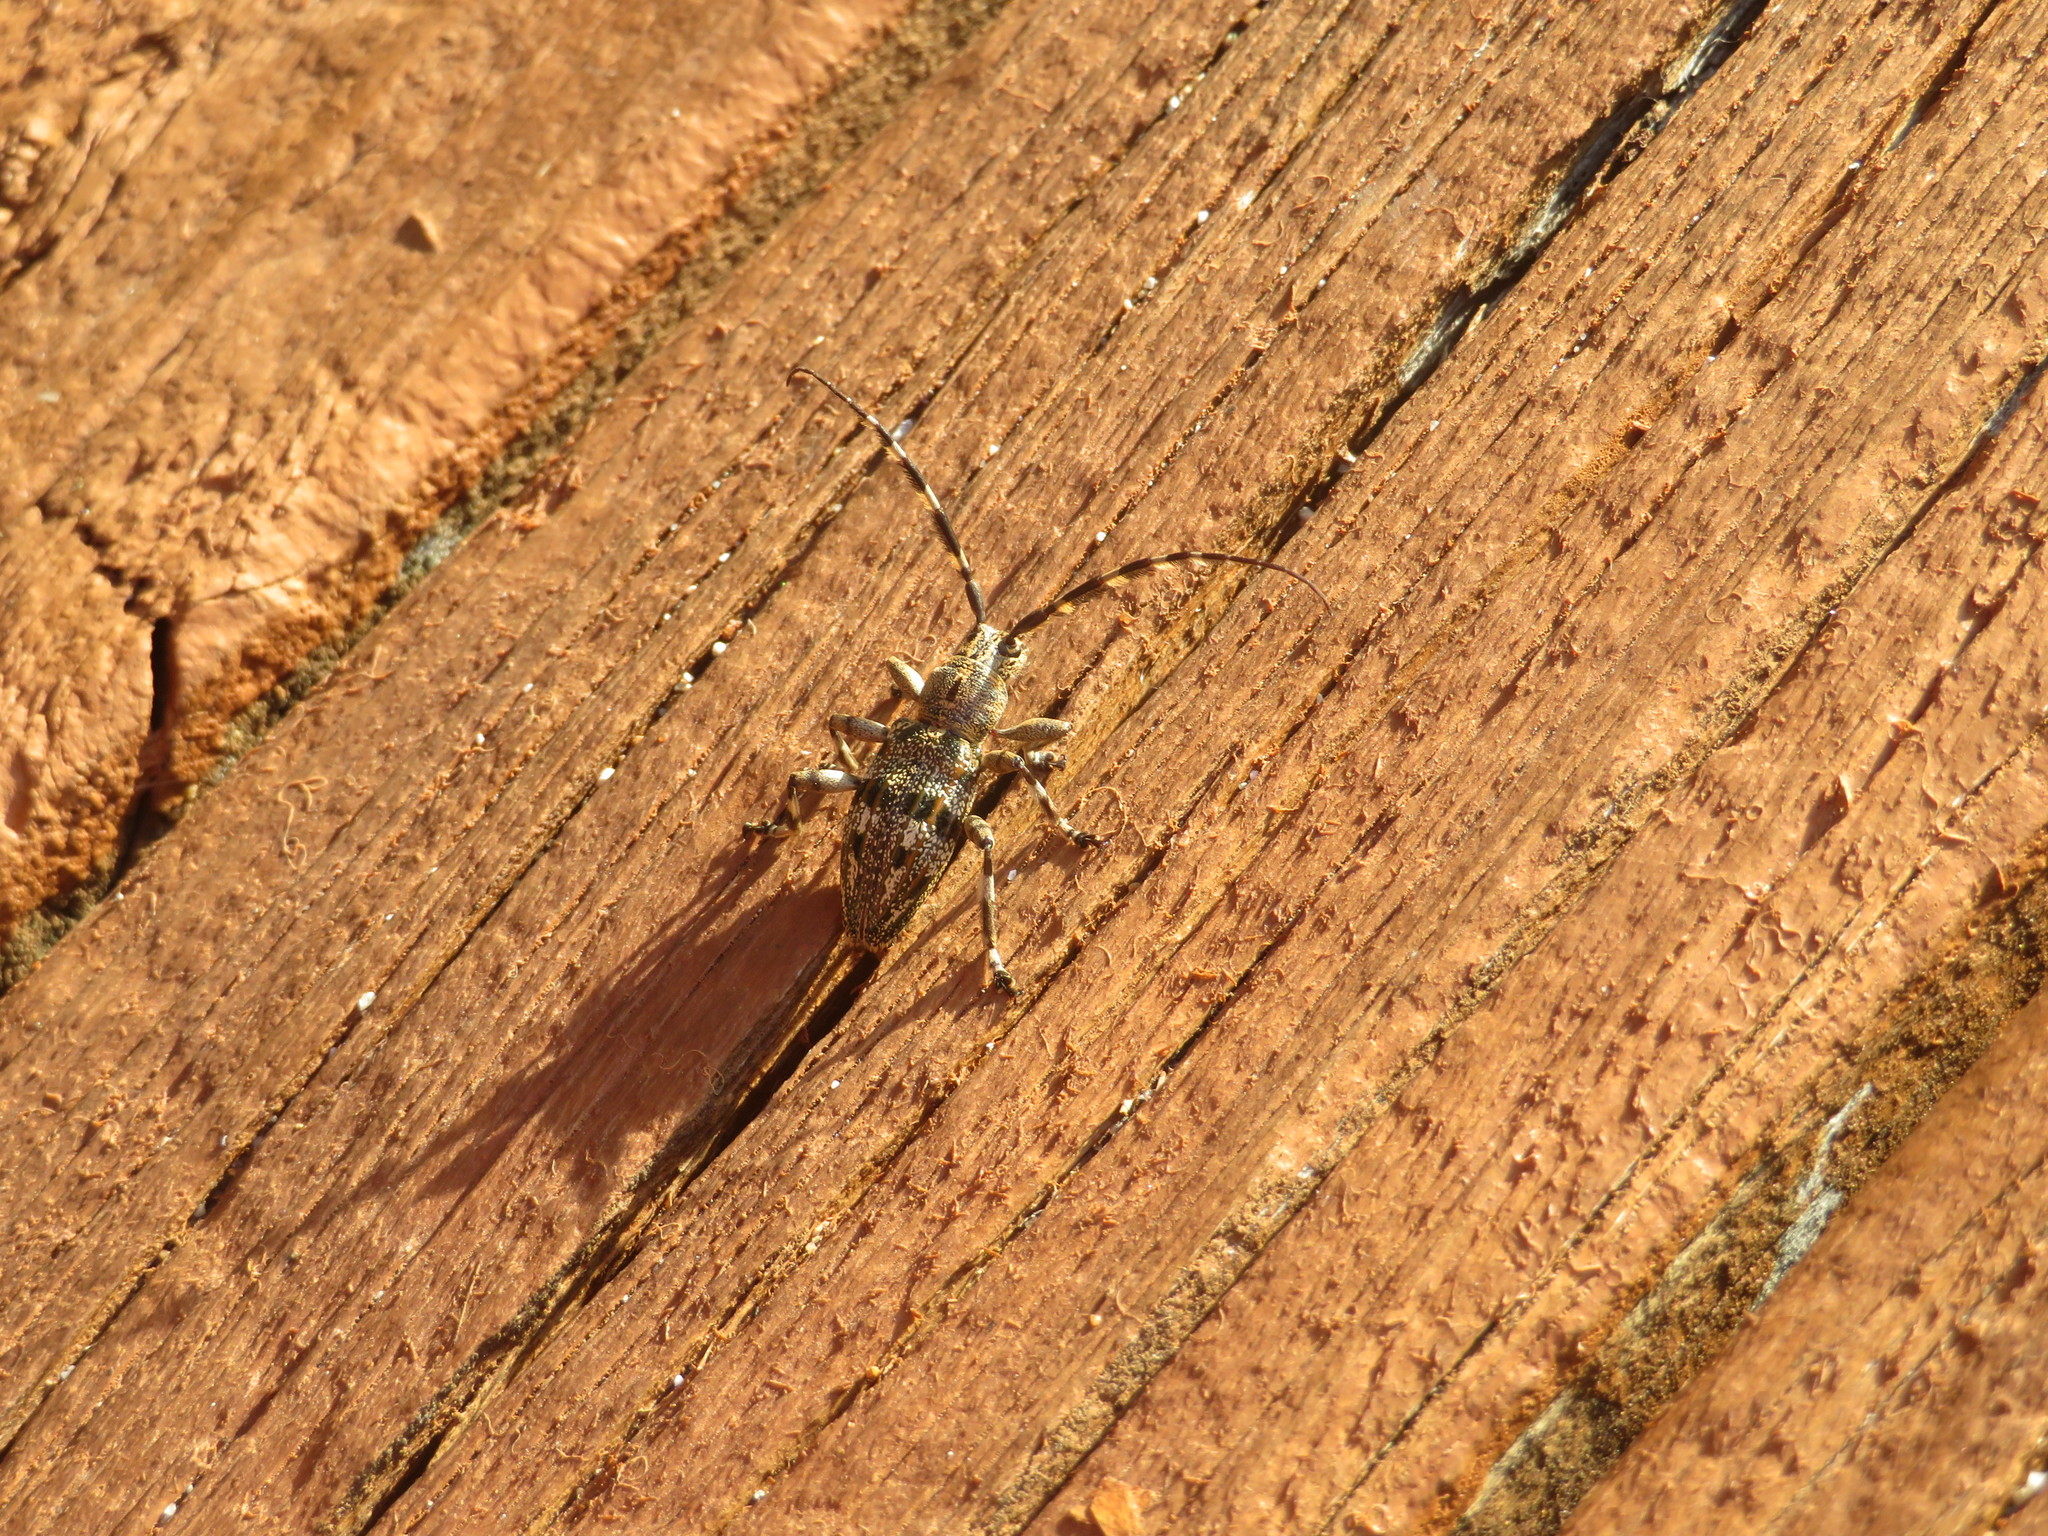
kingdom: Animalia
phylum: Arthropoda
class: Insecta
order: Coleoptera
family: Cerambycidae
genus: Hexatricha
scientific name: Hexatricha pulverulenta
